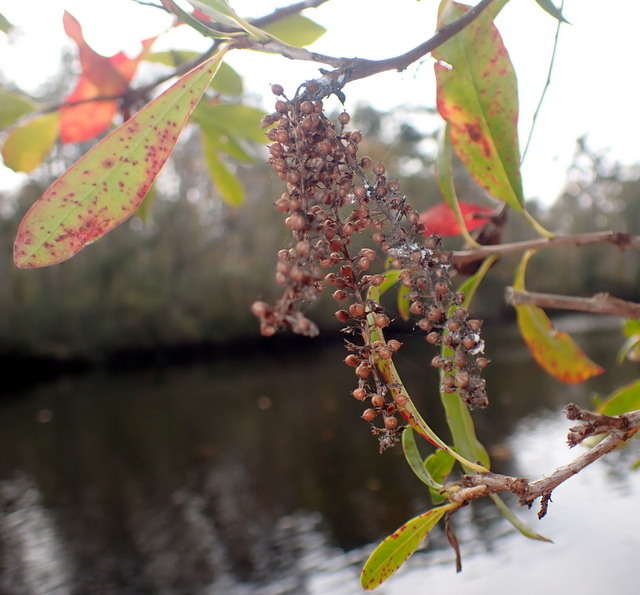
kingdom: Plantae
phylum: Tracheophyta
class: Magnoliopsida
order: Ericales
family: Cyrillaceae
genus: Cyrilla
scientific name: Cyrilla racemiflora
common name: Black titi
